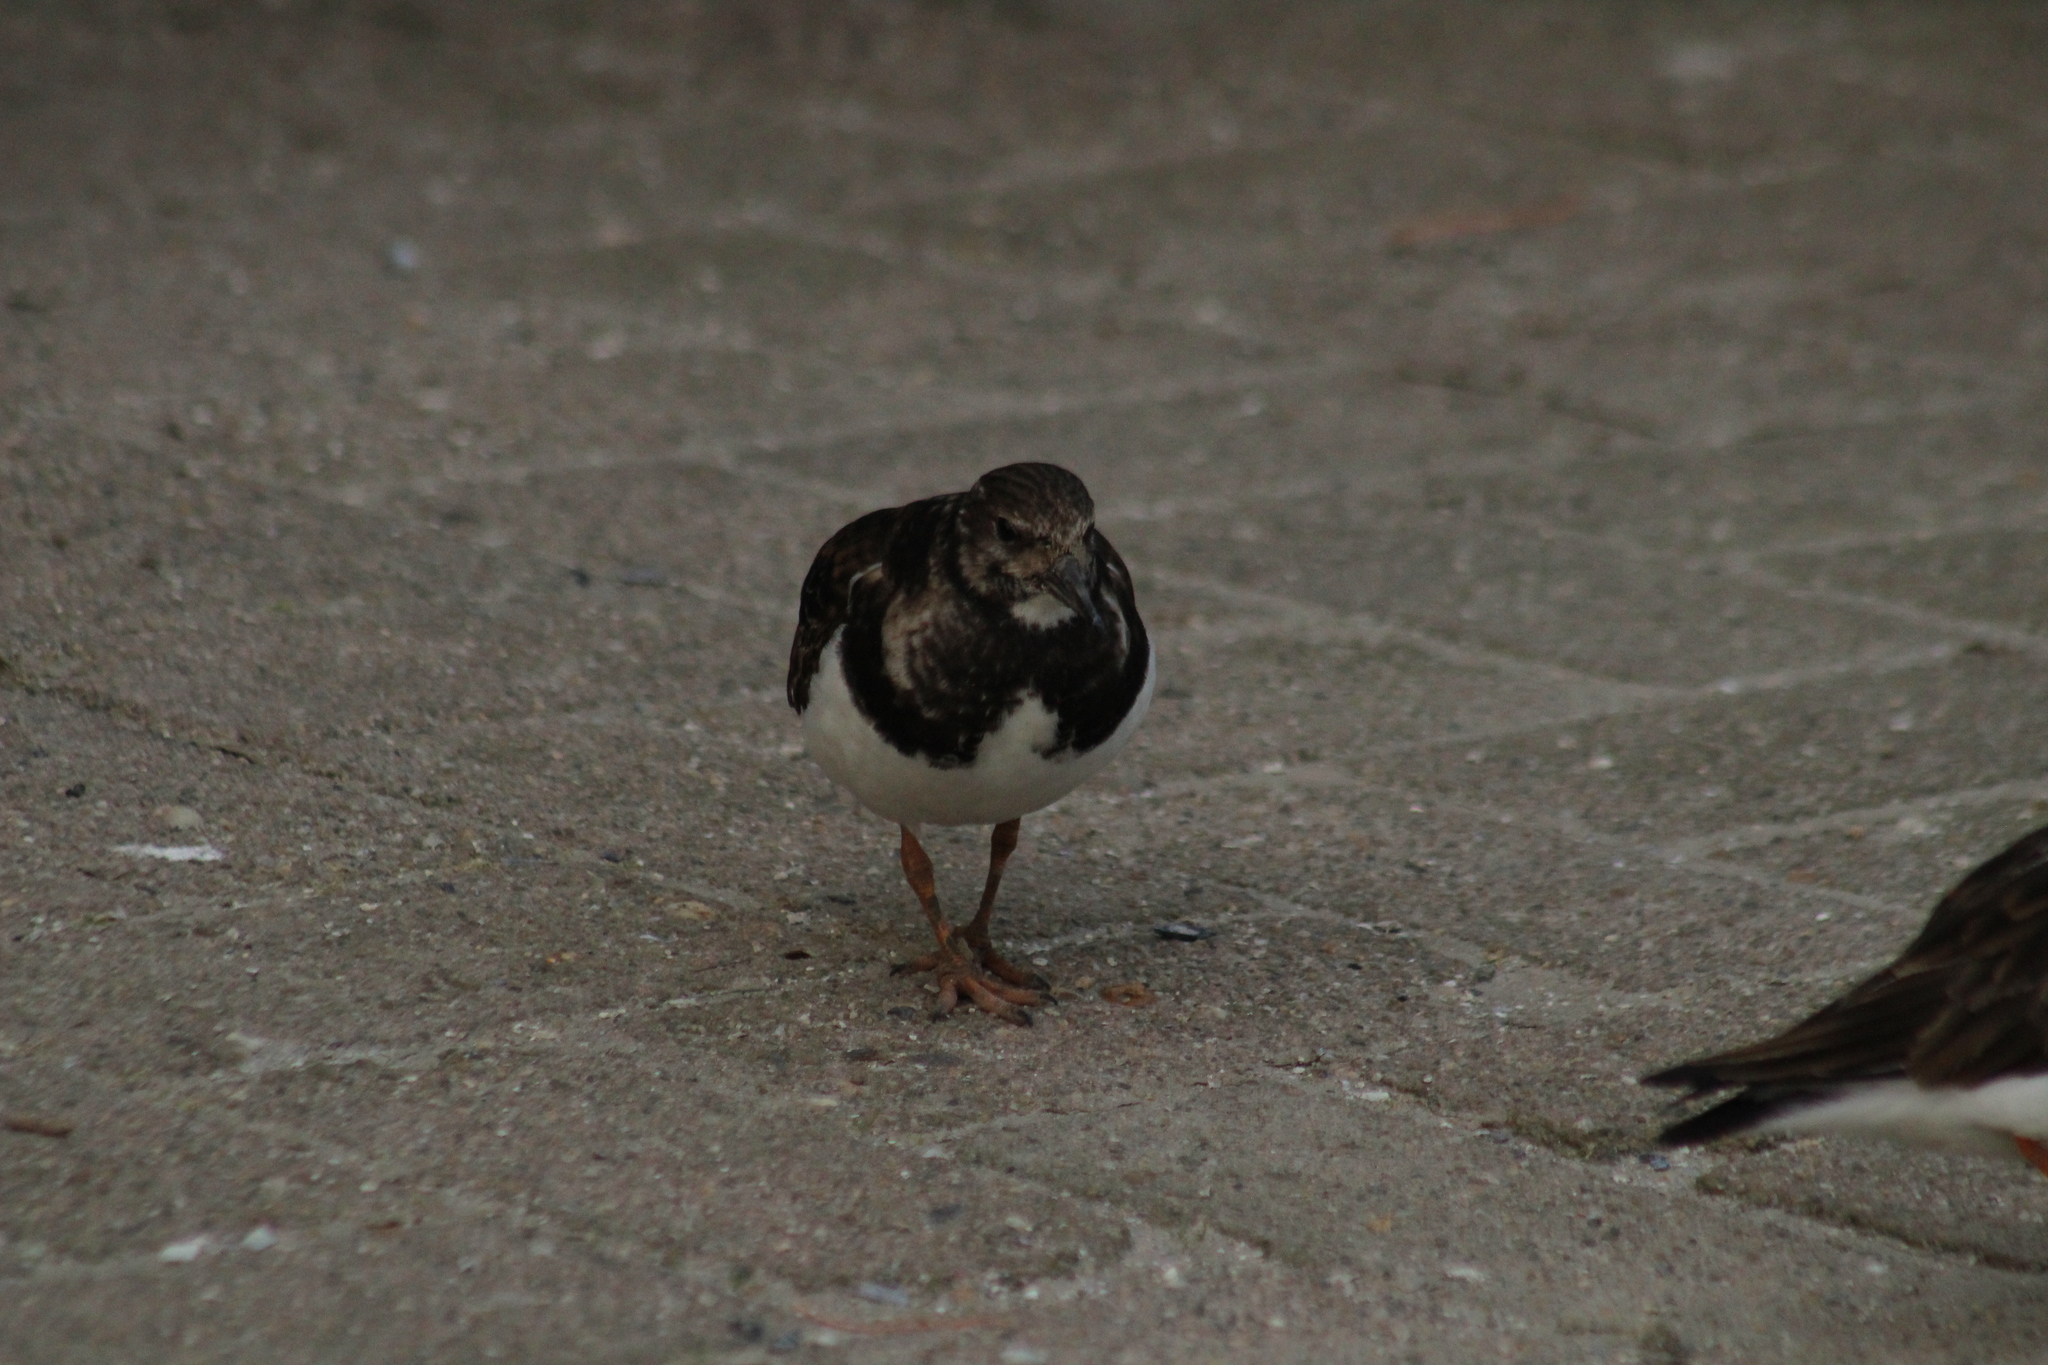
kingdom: Animalia
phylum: Chordata
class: Aves
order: Charadriiformes
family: Scolopacidae
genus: Arenaria
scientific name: Arenaria interpres
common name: Ruddy turnstone
